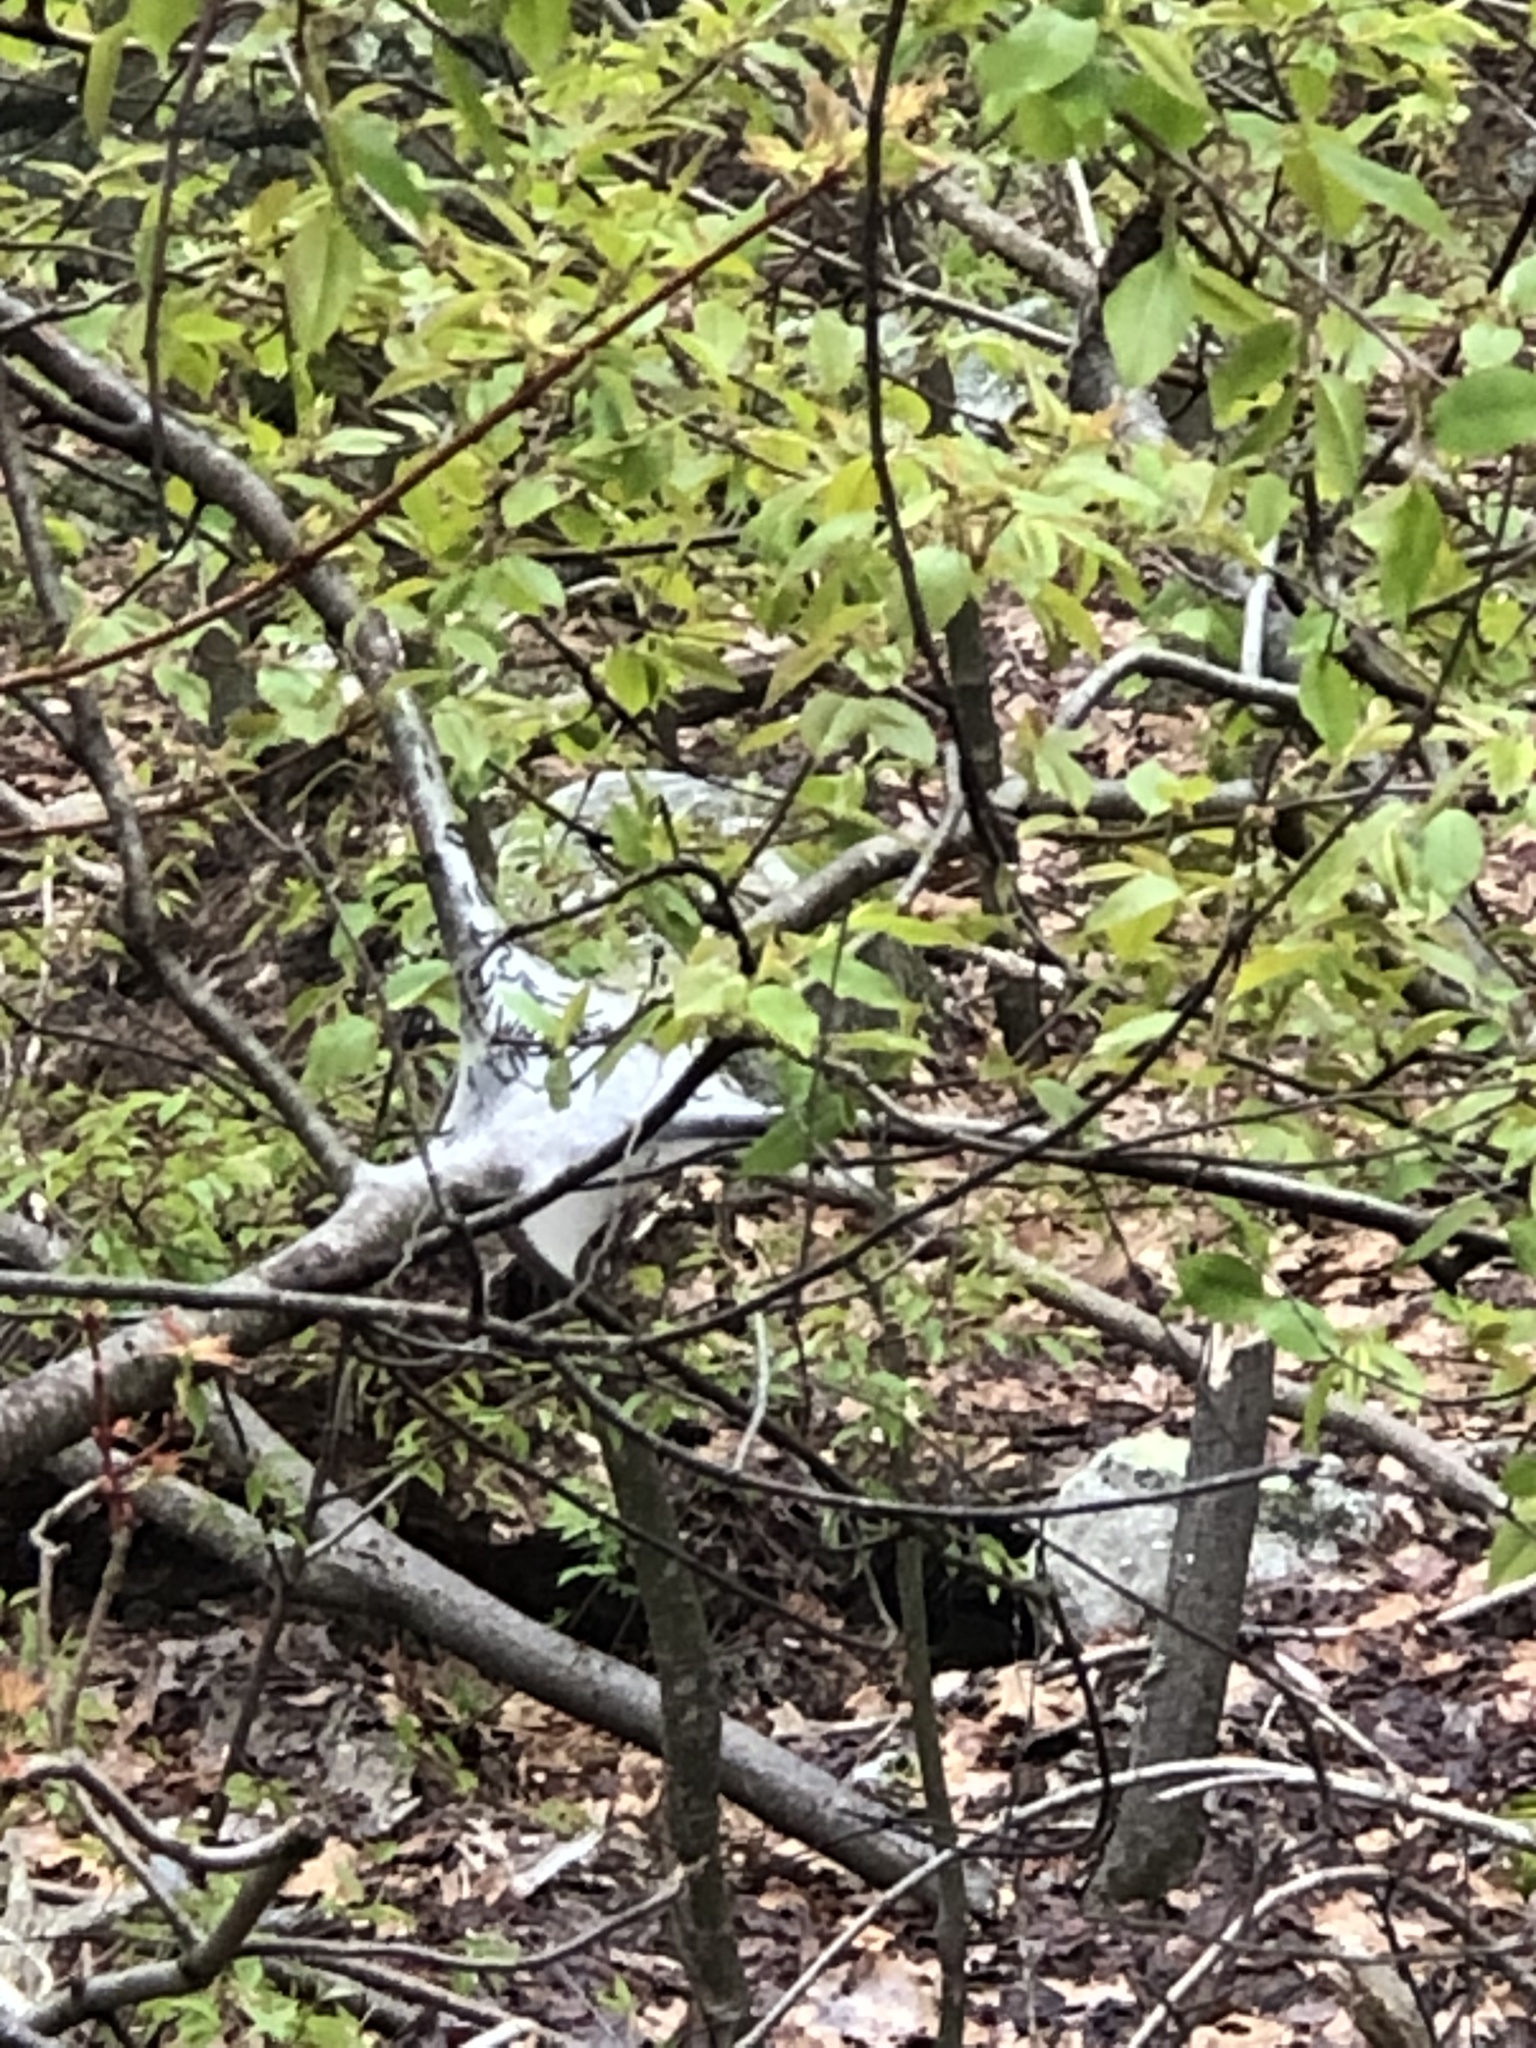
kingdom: Animalia
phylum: Arthropoda
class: Insecta
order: Lepidoptera
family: Lasiocampidae
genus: Malacosoma
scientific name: Malacosoma americana
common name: Eastern tent caterpillar moth
